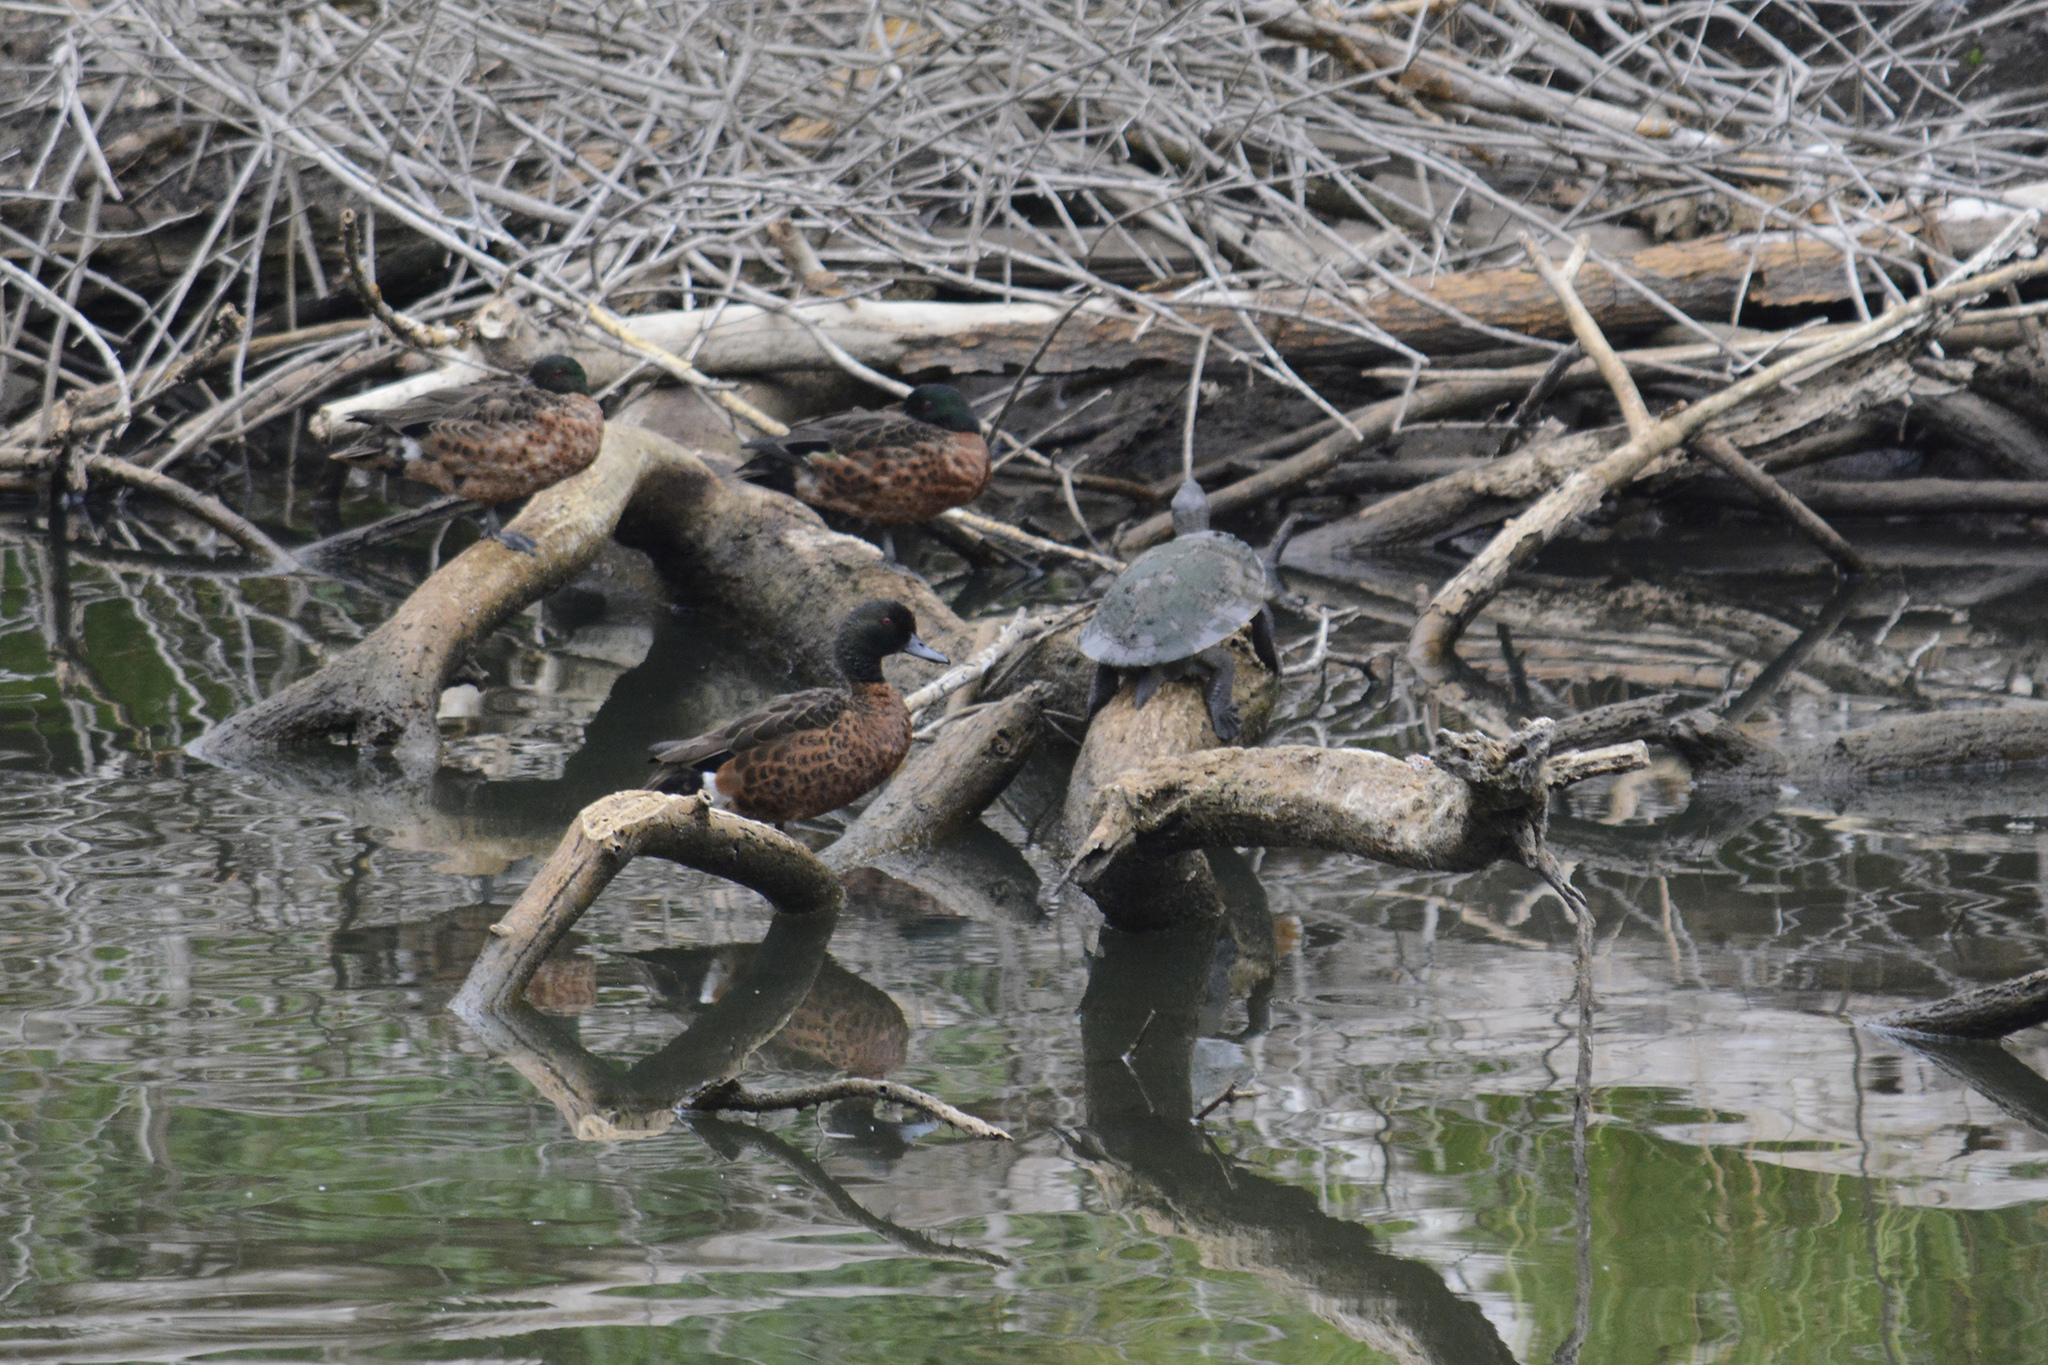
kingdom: Animalia
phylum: Chordata
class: Aves
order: Anseriformes
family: Anatidae
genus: Anas
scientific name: Anas castanea
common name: Chestnut teal
